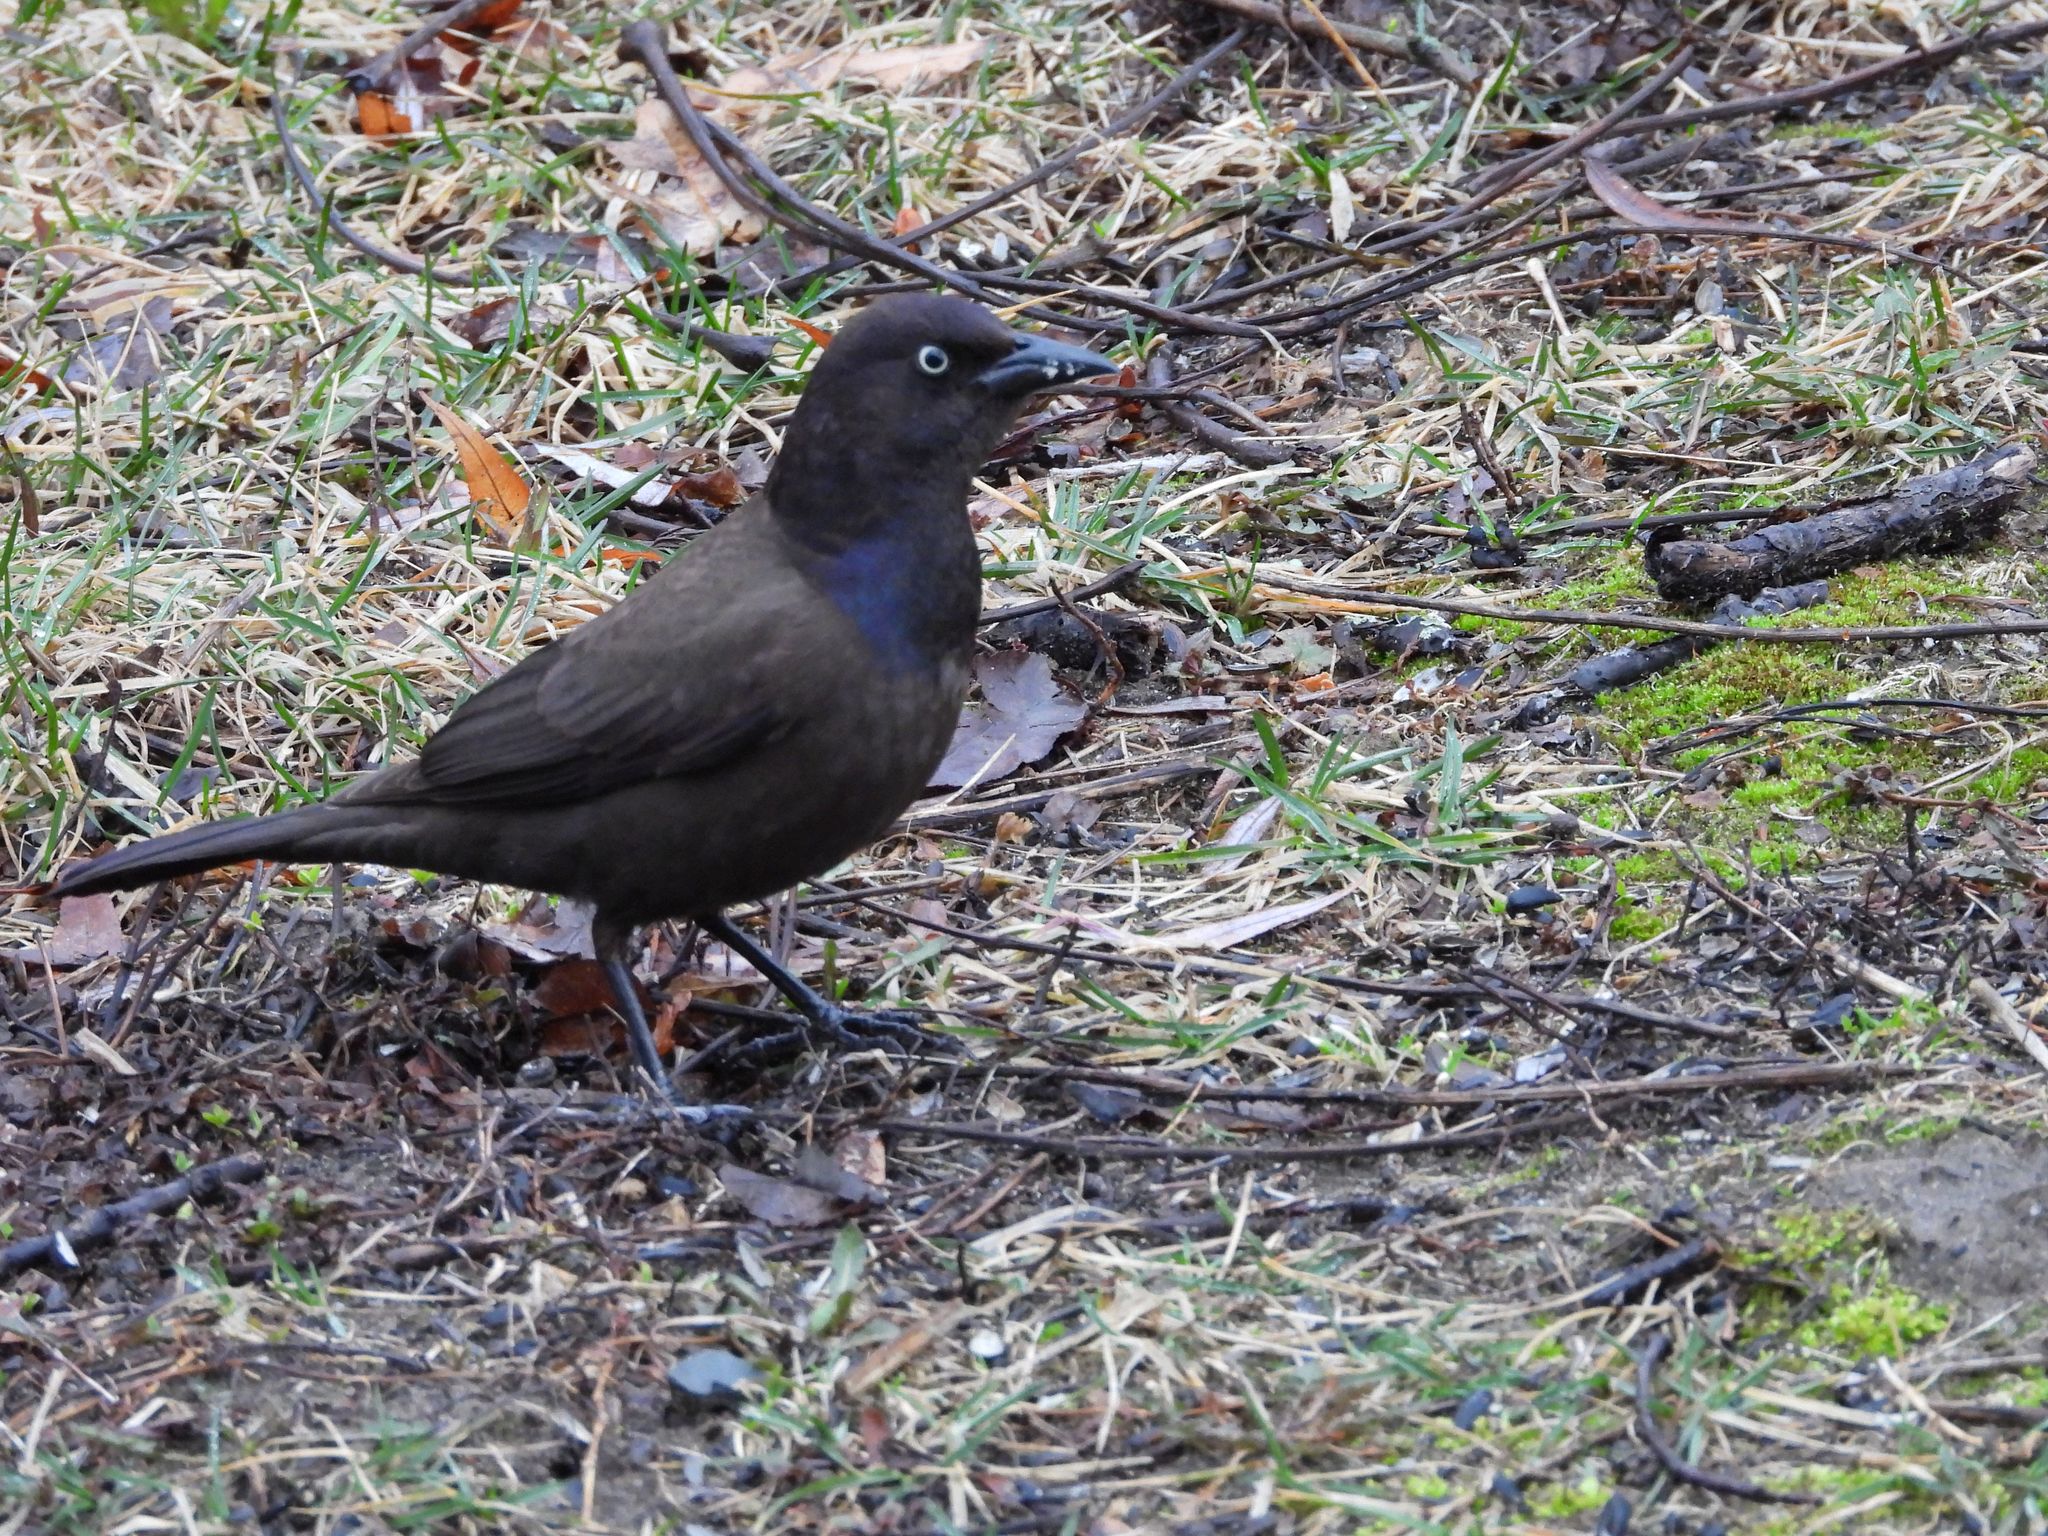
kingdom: Animalia
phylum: Chordata
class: Aves
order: Passeriformes
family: Icteridae
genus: Quiscalus
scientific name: Quiscalus quiscula
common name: Common grackle
